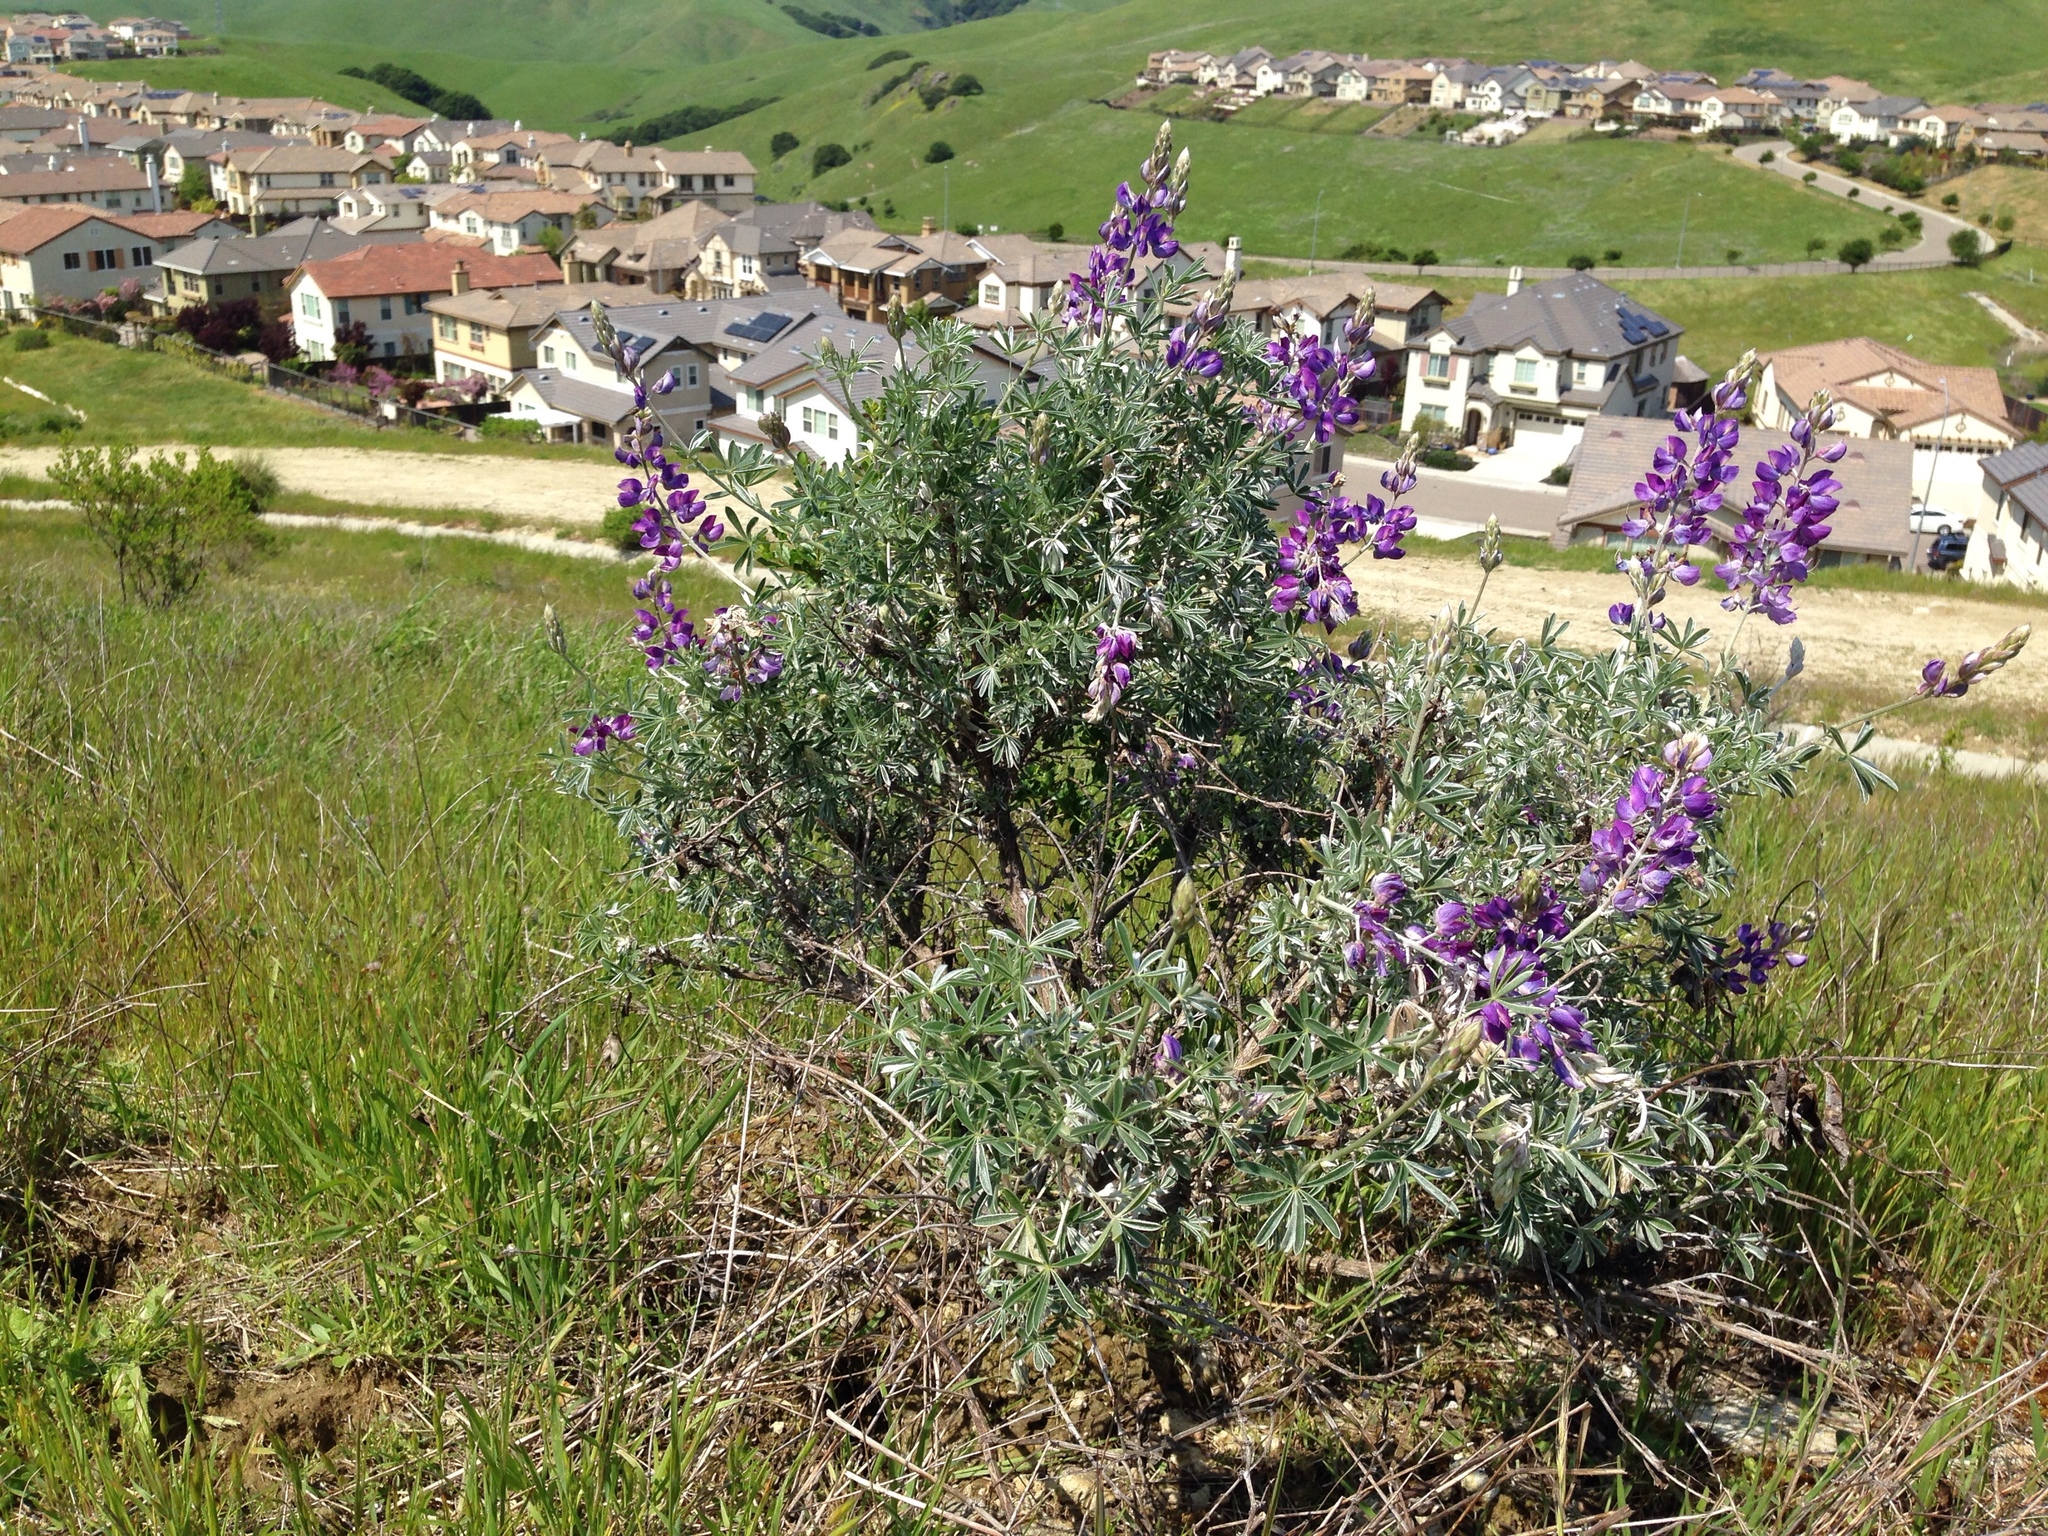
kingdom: Plantae
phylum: Tracheophyta
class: Magnoliopsida
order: Fabales
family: Fabaceae
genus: Lupinus
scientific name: Lupinus albifrons
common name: Foothill lupine
